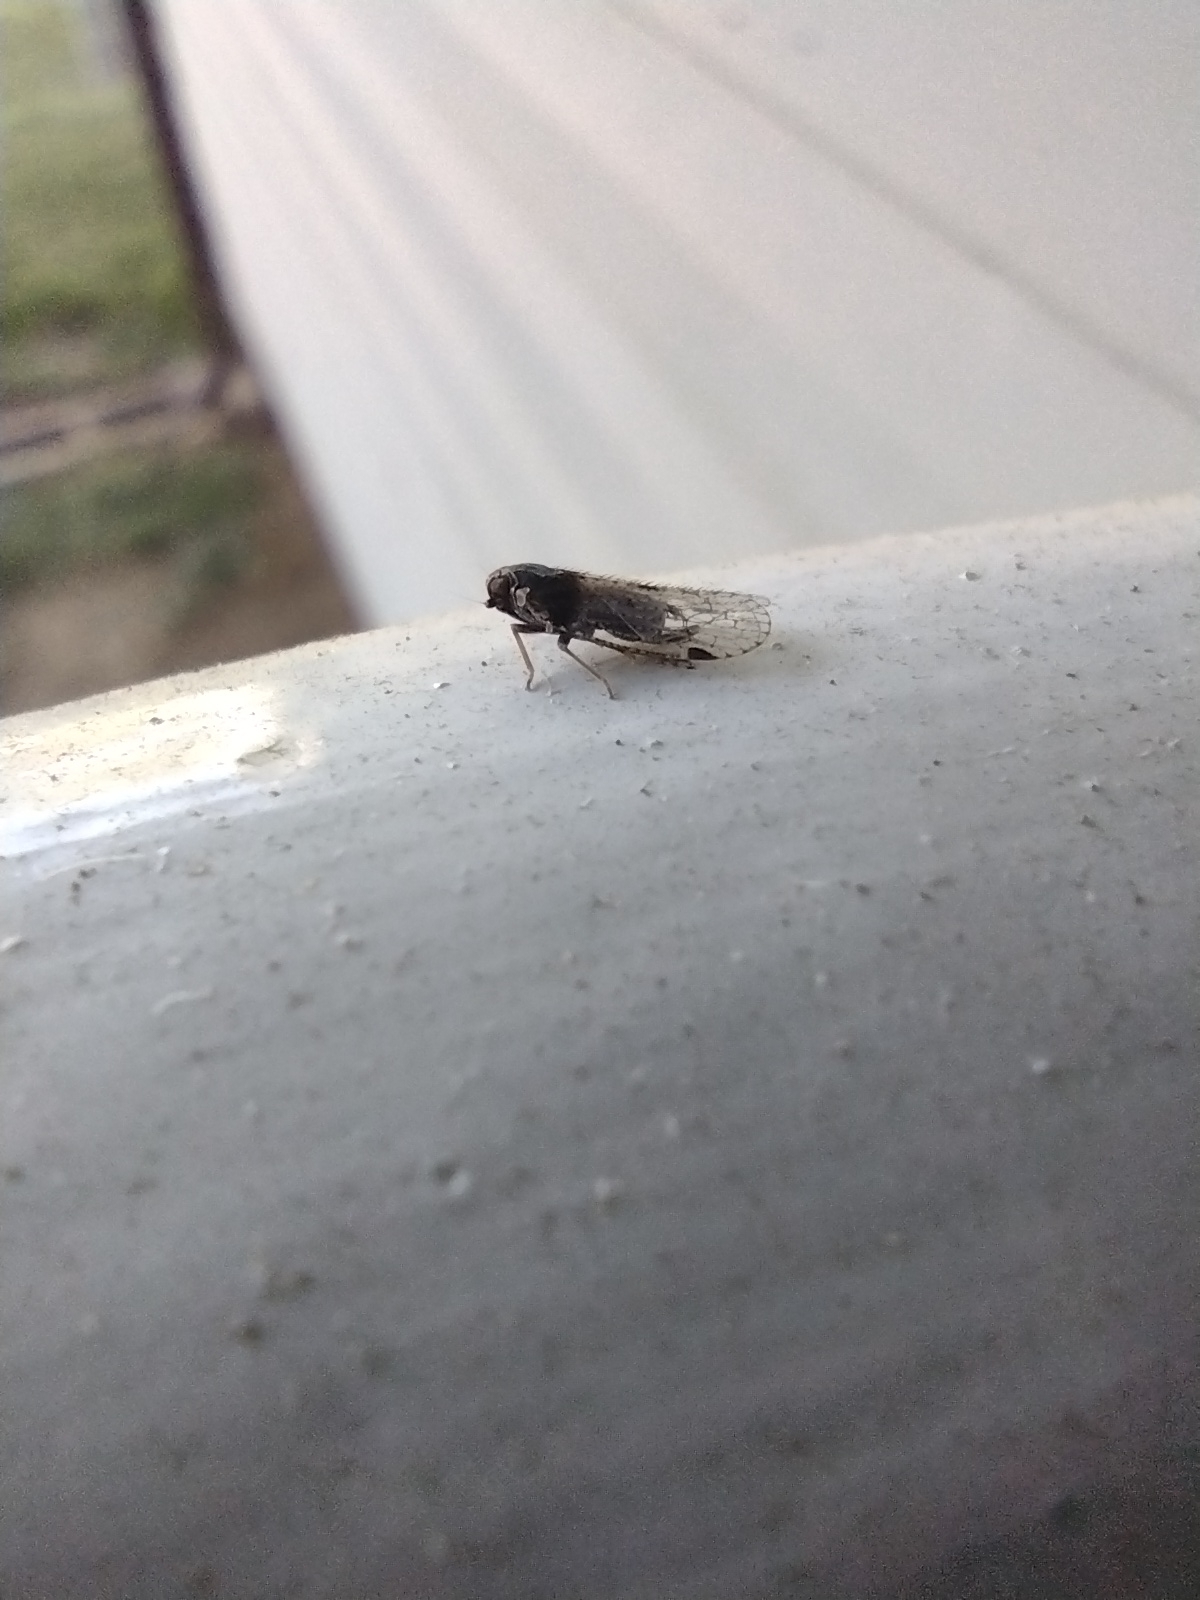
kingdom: Animalia
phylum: Arthropoda
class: Insecta
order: Hemiptera
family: Cixiidae
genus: Cixius
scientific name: Cixius stigmatus
